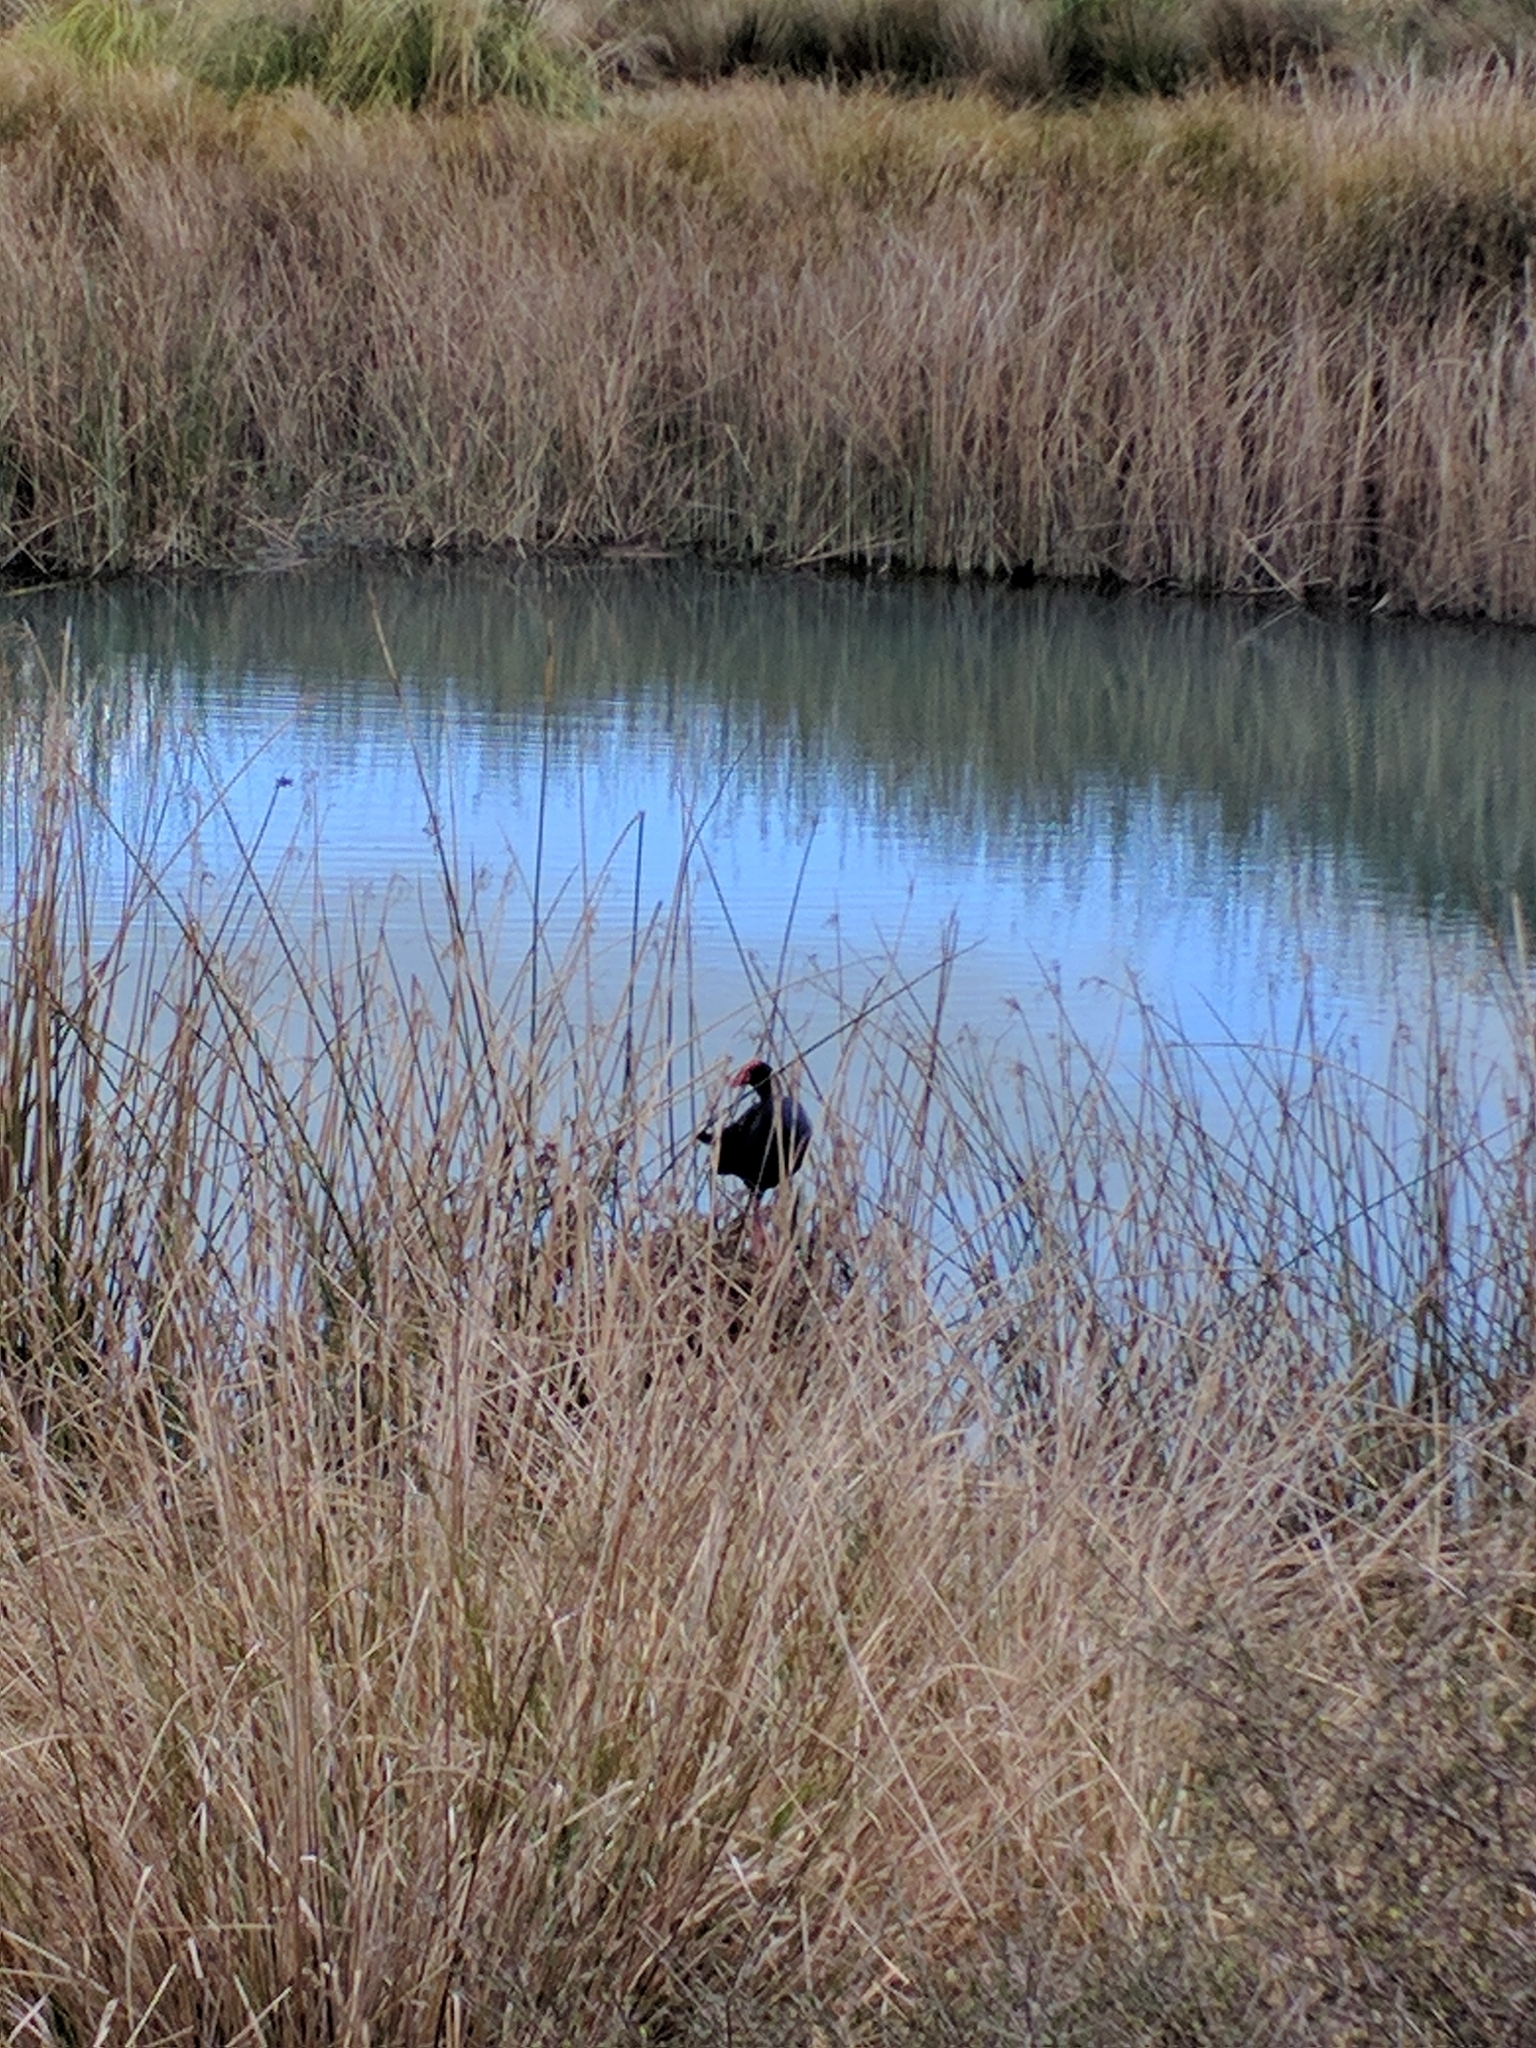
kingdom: Animalia
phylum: Chordata
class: Aves
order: Gruiformes
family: Rallidae
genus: Porphyrio
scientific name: Porphyrio melanotus
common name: Australasian swamphen
